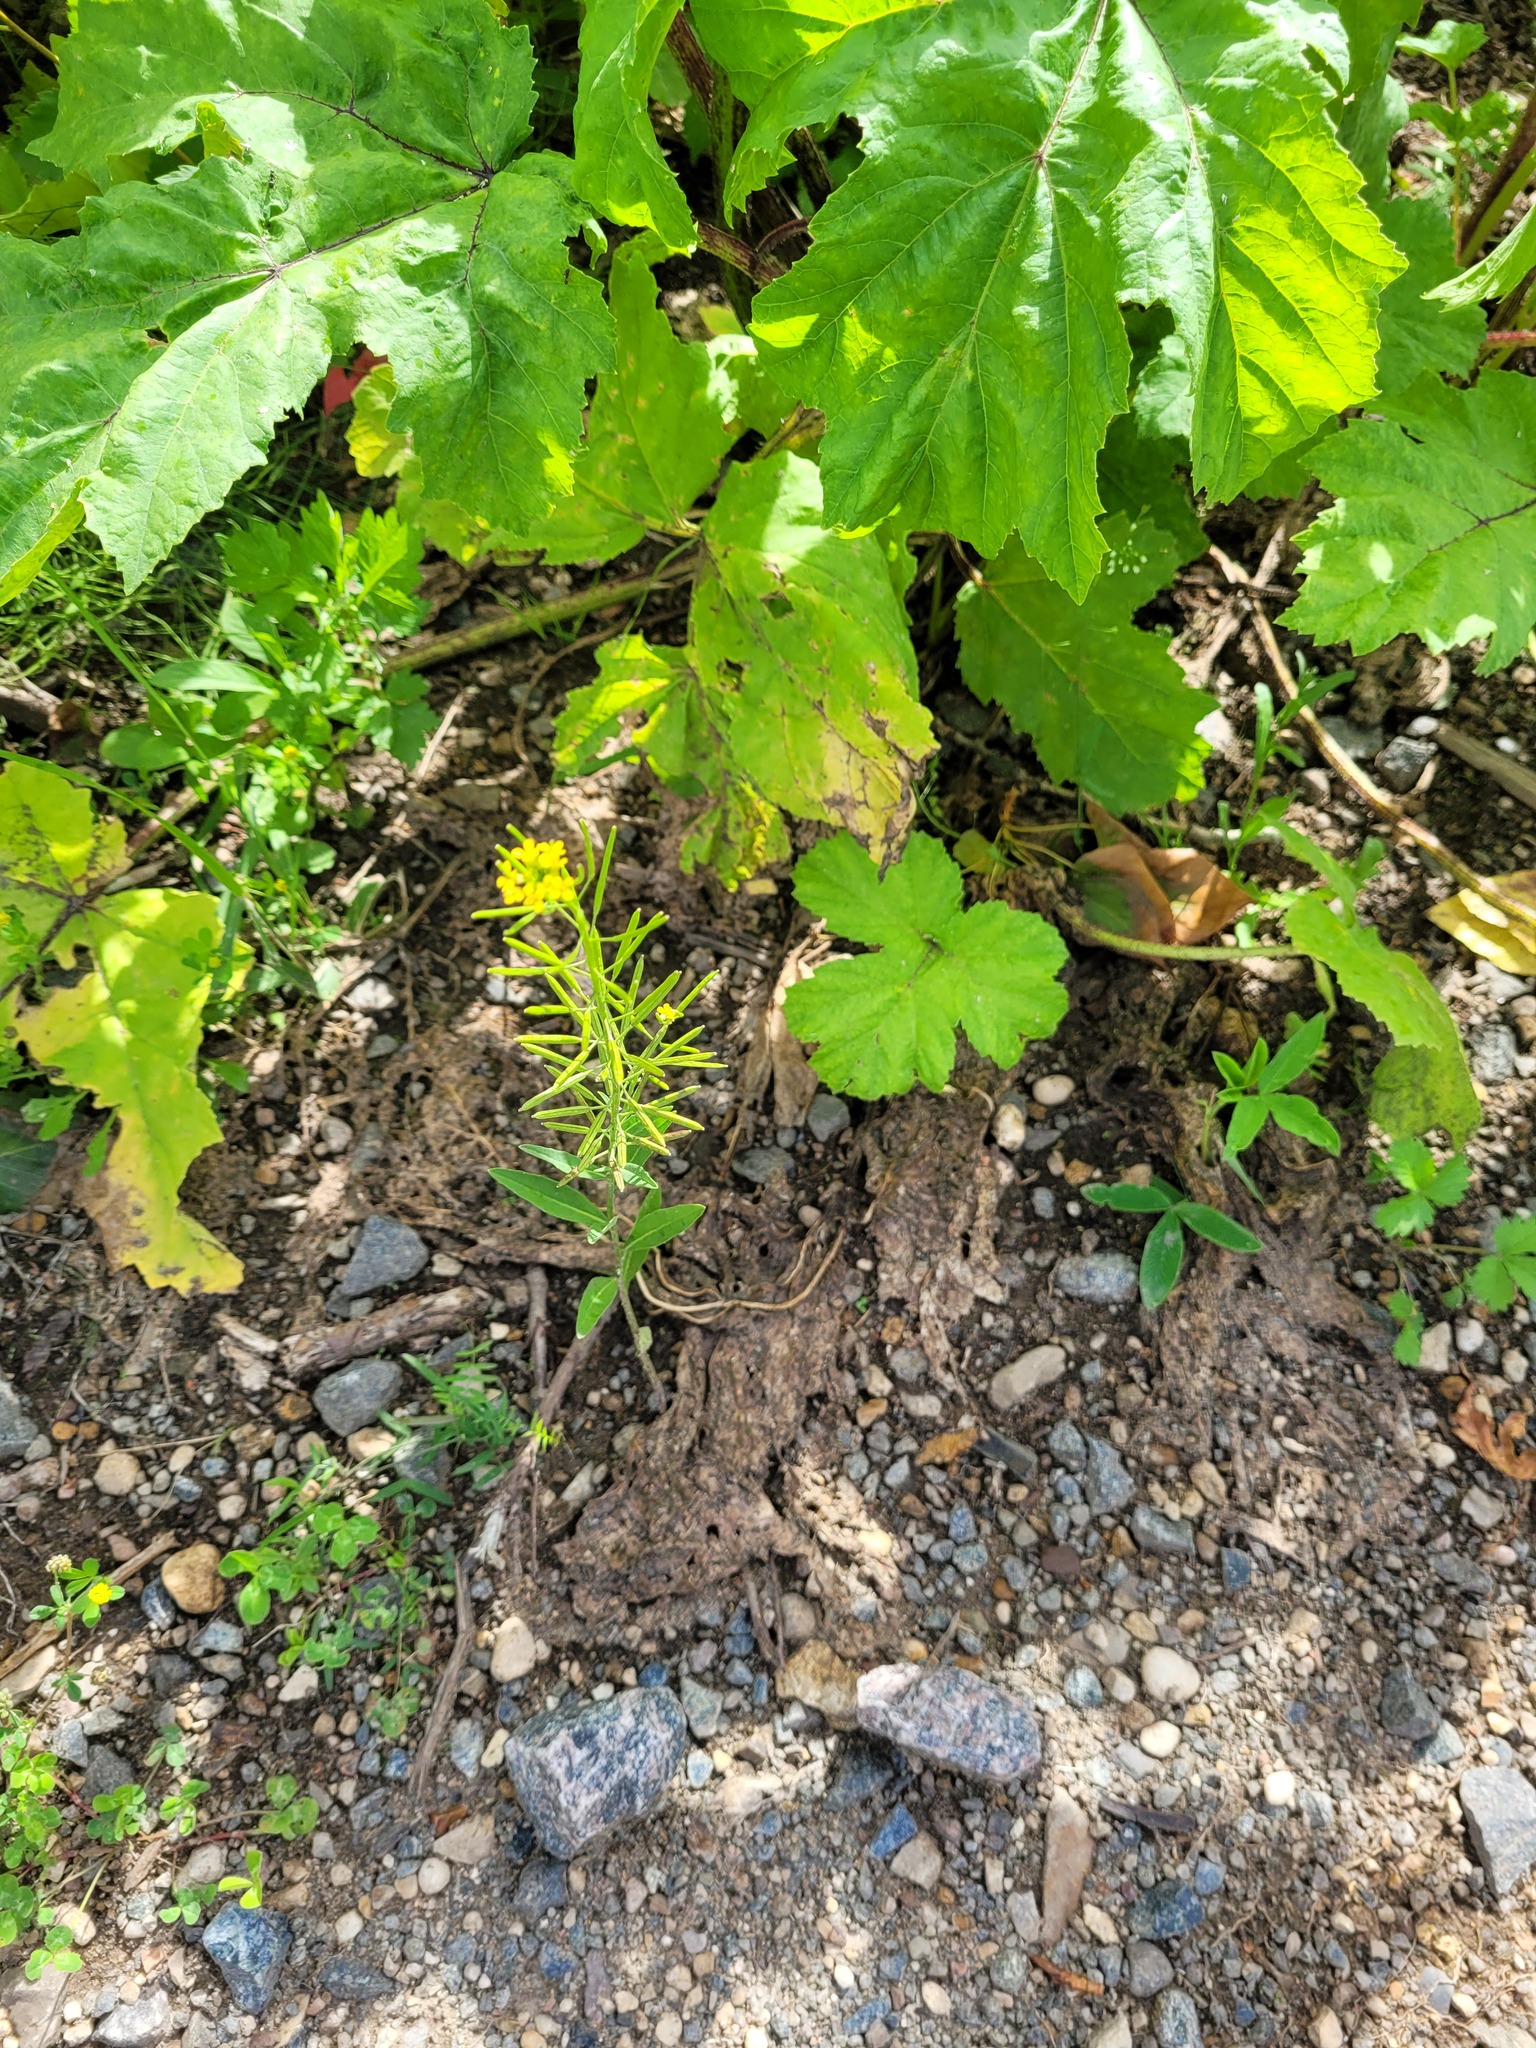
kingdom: Plantae
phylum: Tracheophyta
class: Magnoliopsida
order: Brassicales
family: Brassicaceae
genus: Erysimum
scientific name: Erysimum cheiranthoides
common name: Treacle mustard
